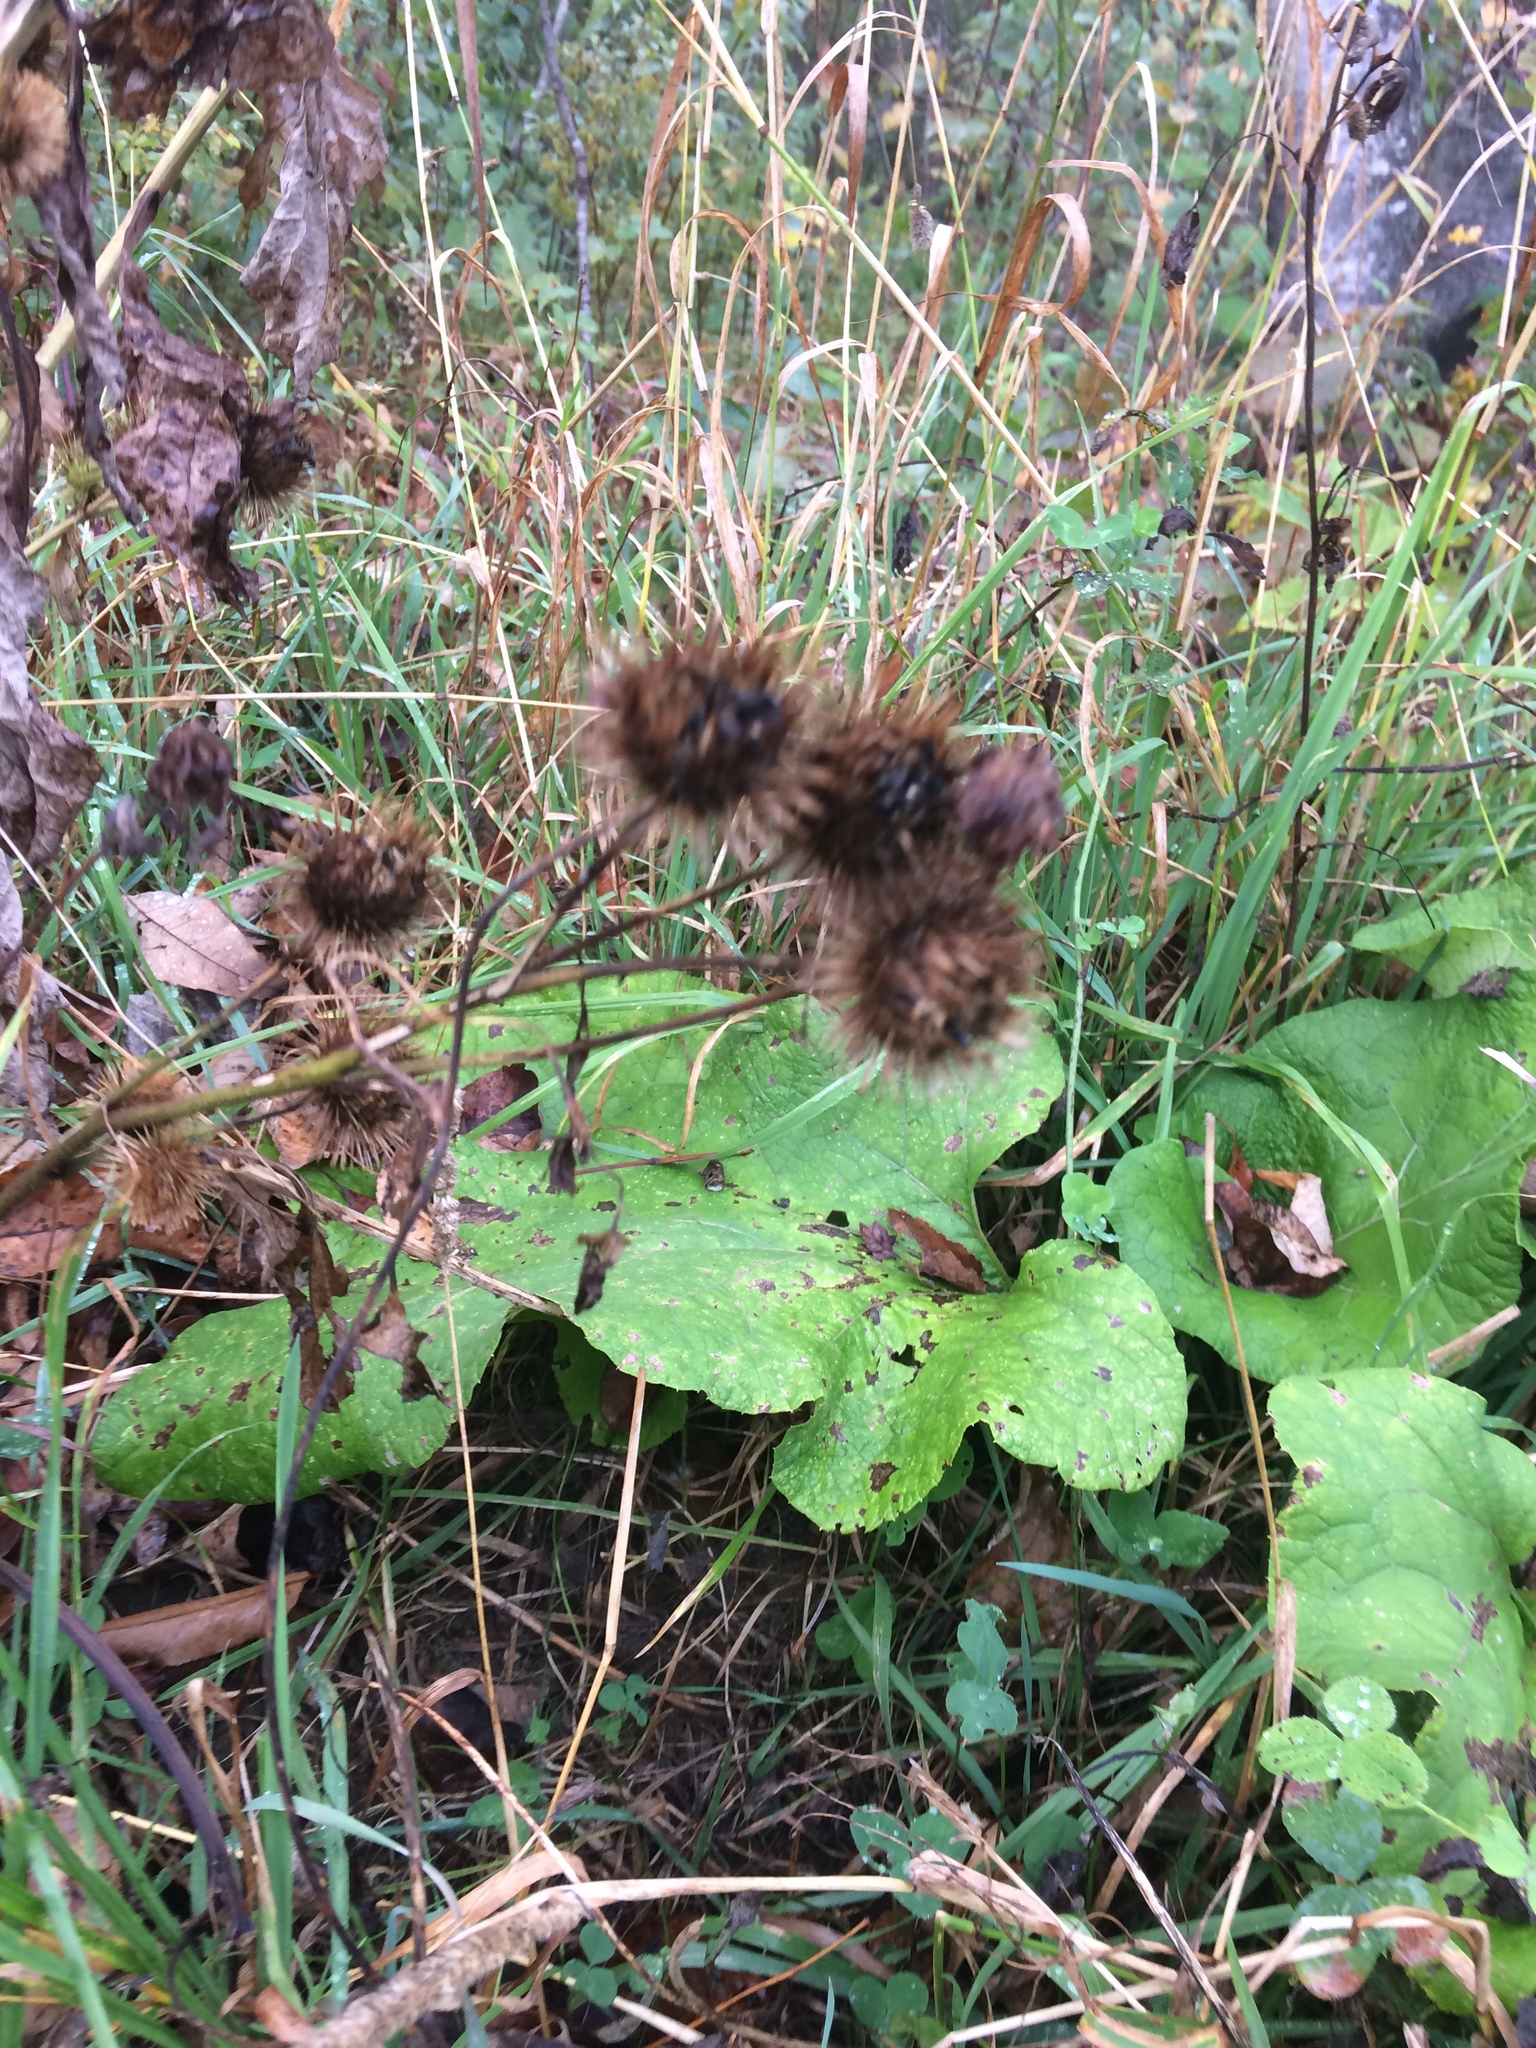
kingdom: Plantae
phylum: Tracheophyta
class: Magnoliopsida
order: Asterales
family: Asteraceae
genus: Arctium
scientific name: Arctium lappa
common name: Greater burdock
